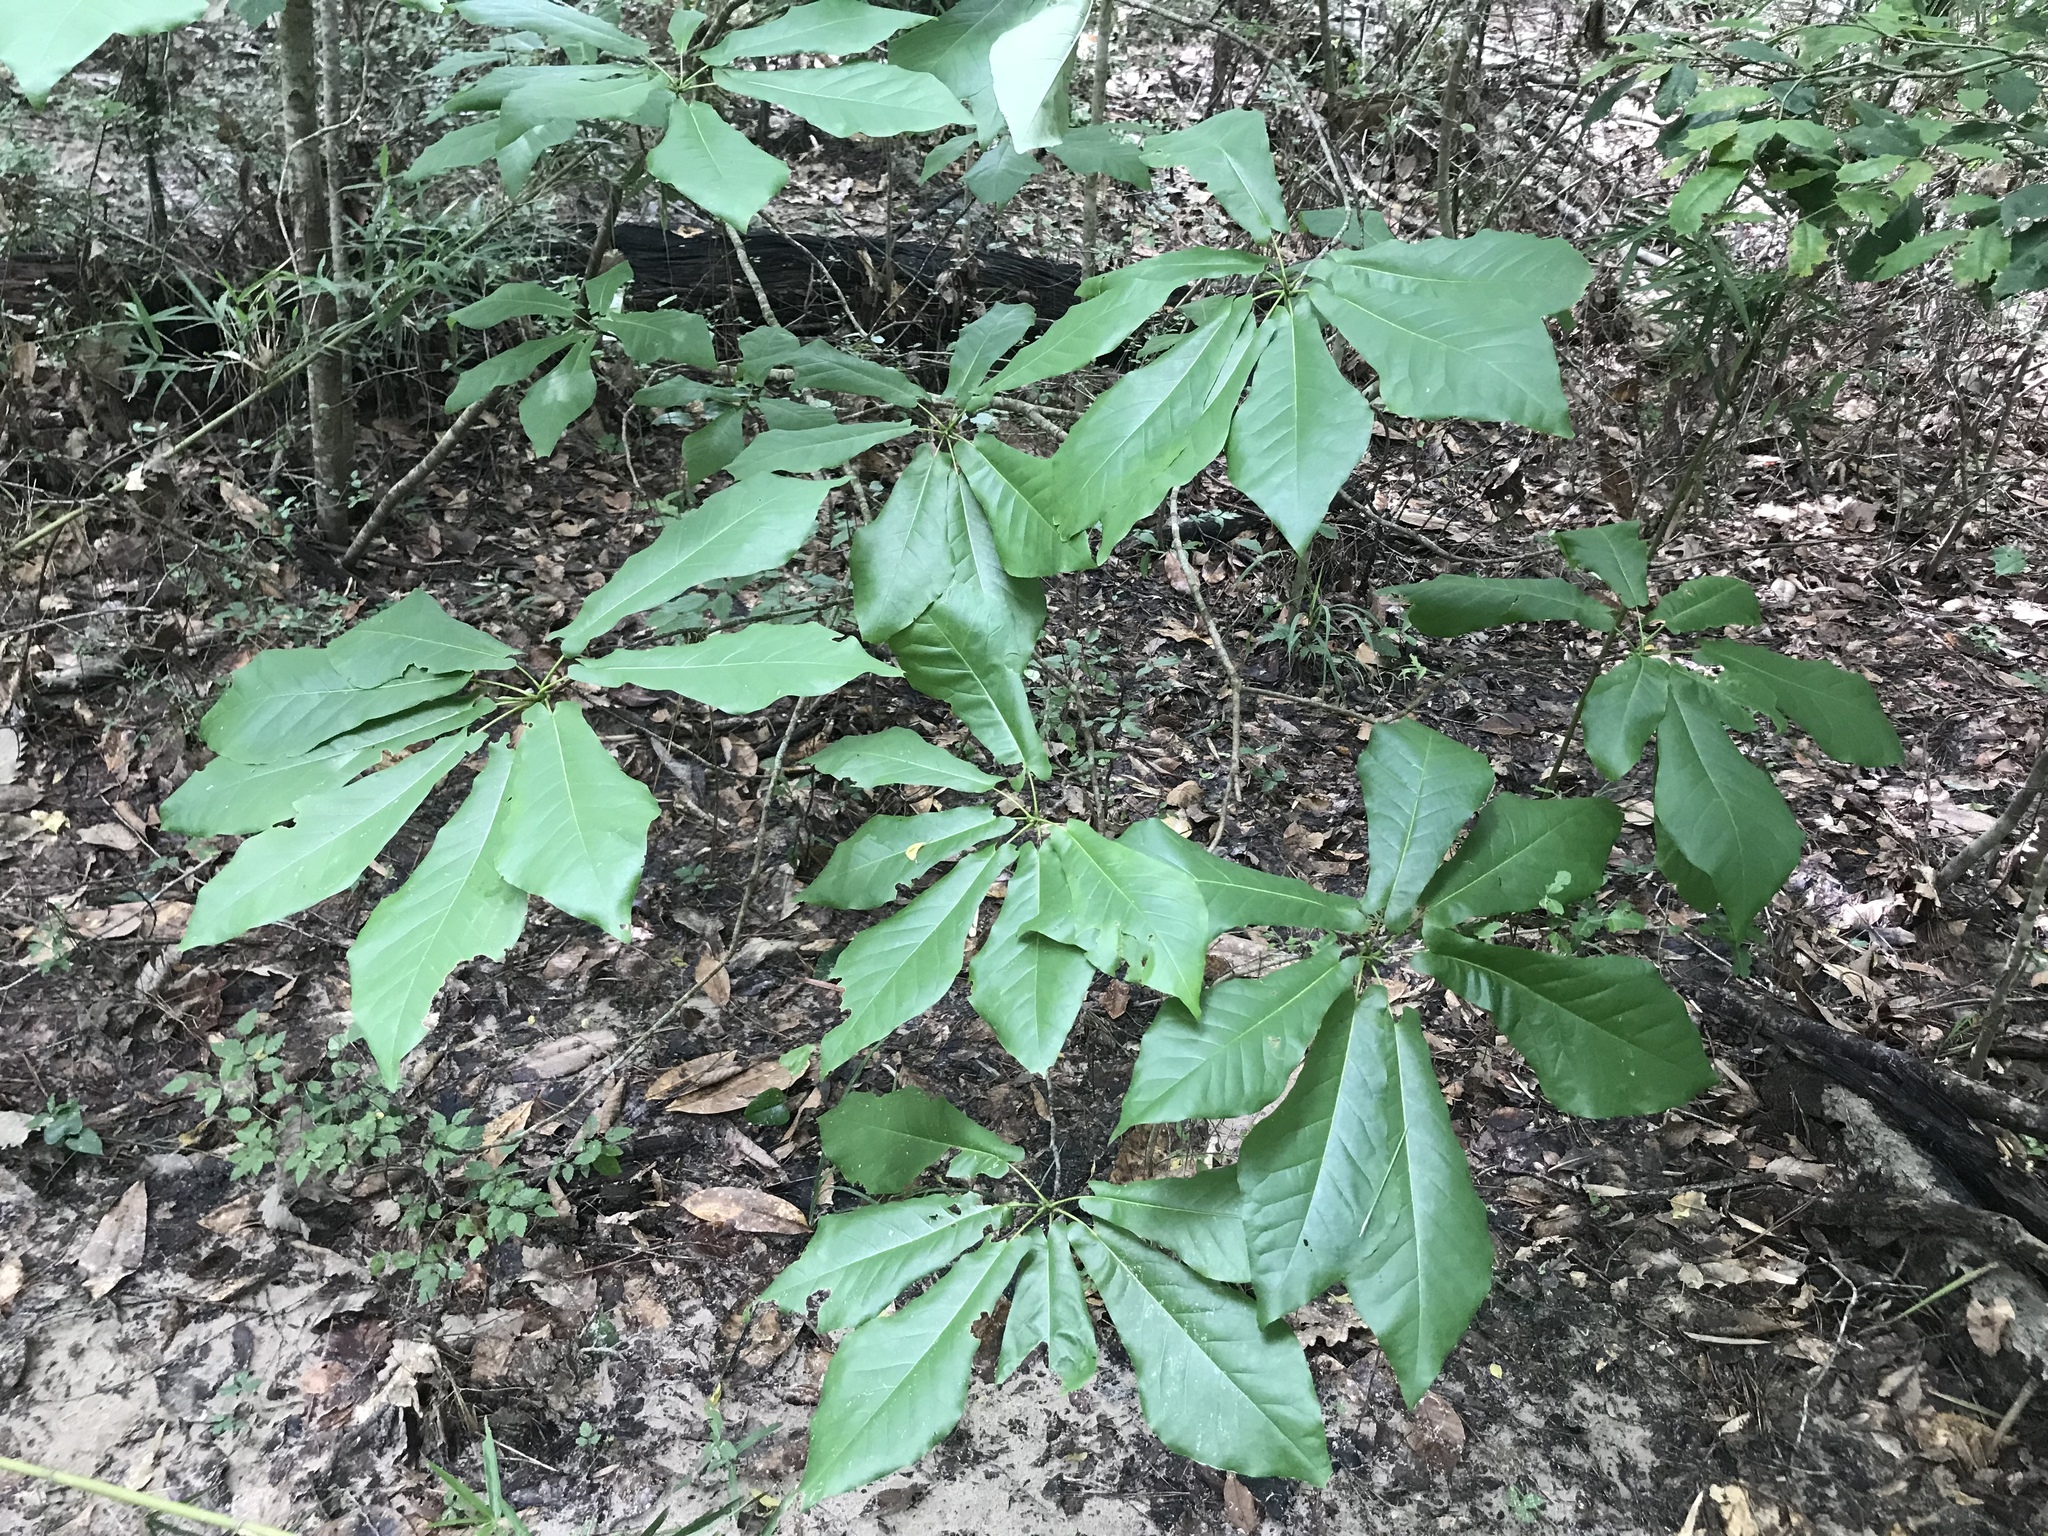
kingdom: Plantae
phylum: Tracheophyta
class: Magnoliopsida
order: Magnoliales
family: Magnoliaceae
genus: Magnolia
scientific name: Magnolia fraseri
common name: Fraser's magnolia
